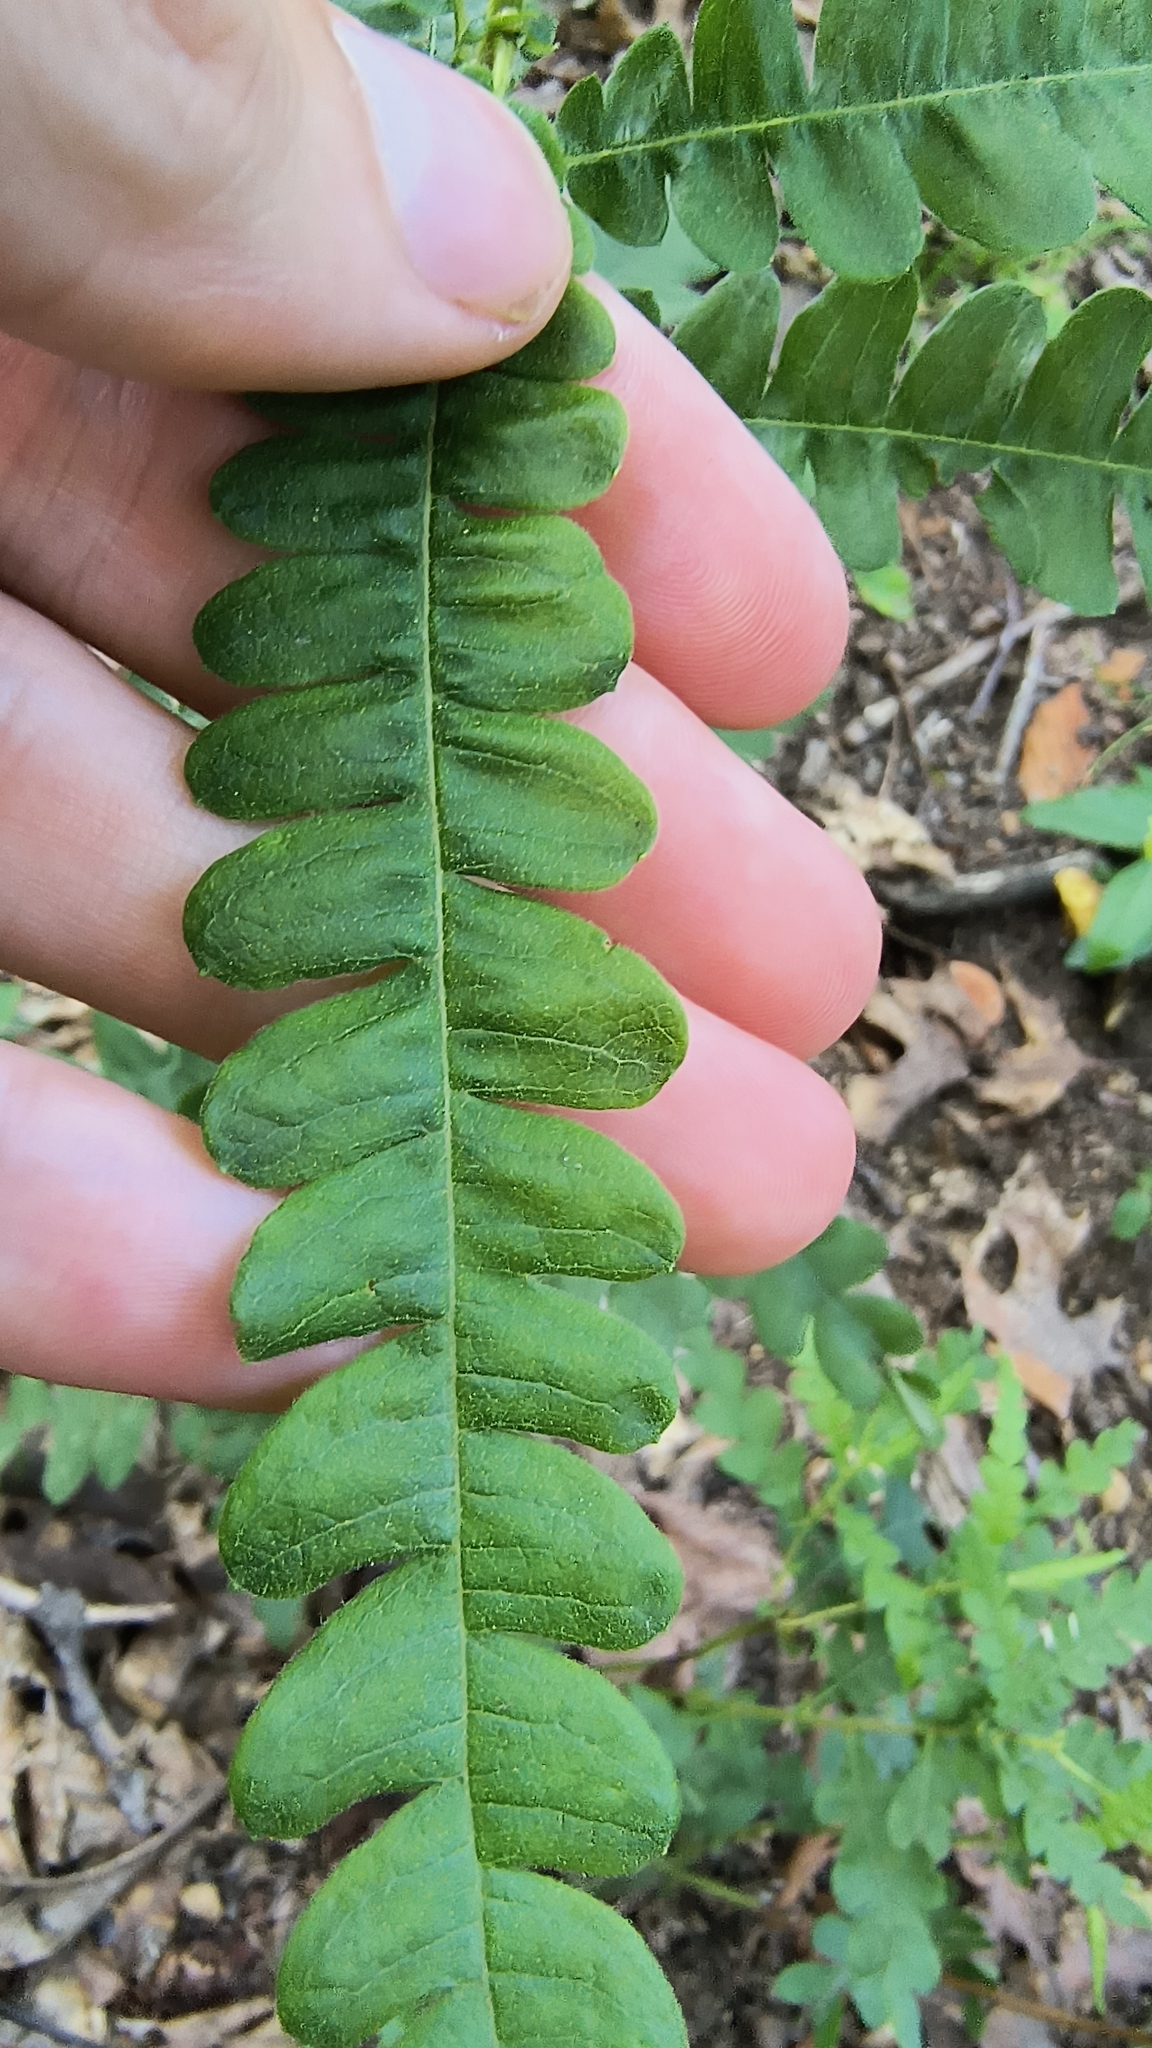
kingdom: Plantae
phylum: Tracheophyta
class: Magnoliopsida
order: Fagales
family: Myricaceae
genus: Comptonia
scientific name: Comptonia peregrina
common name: Sweet-fern
